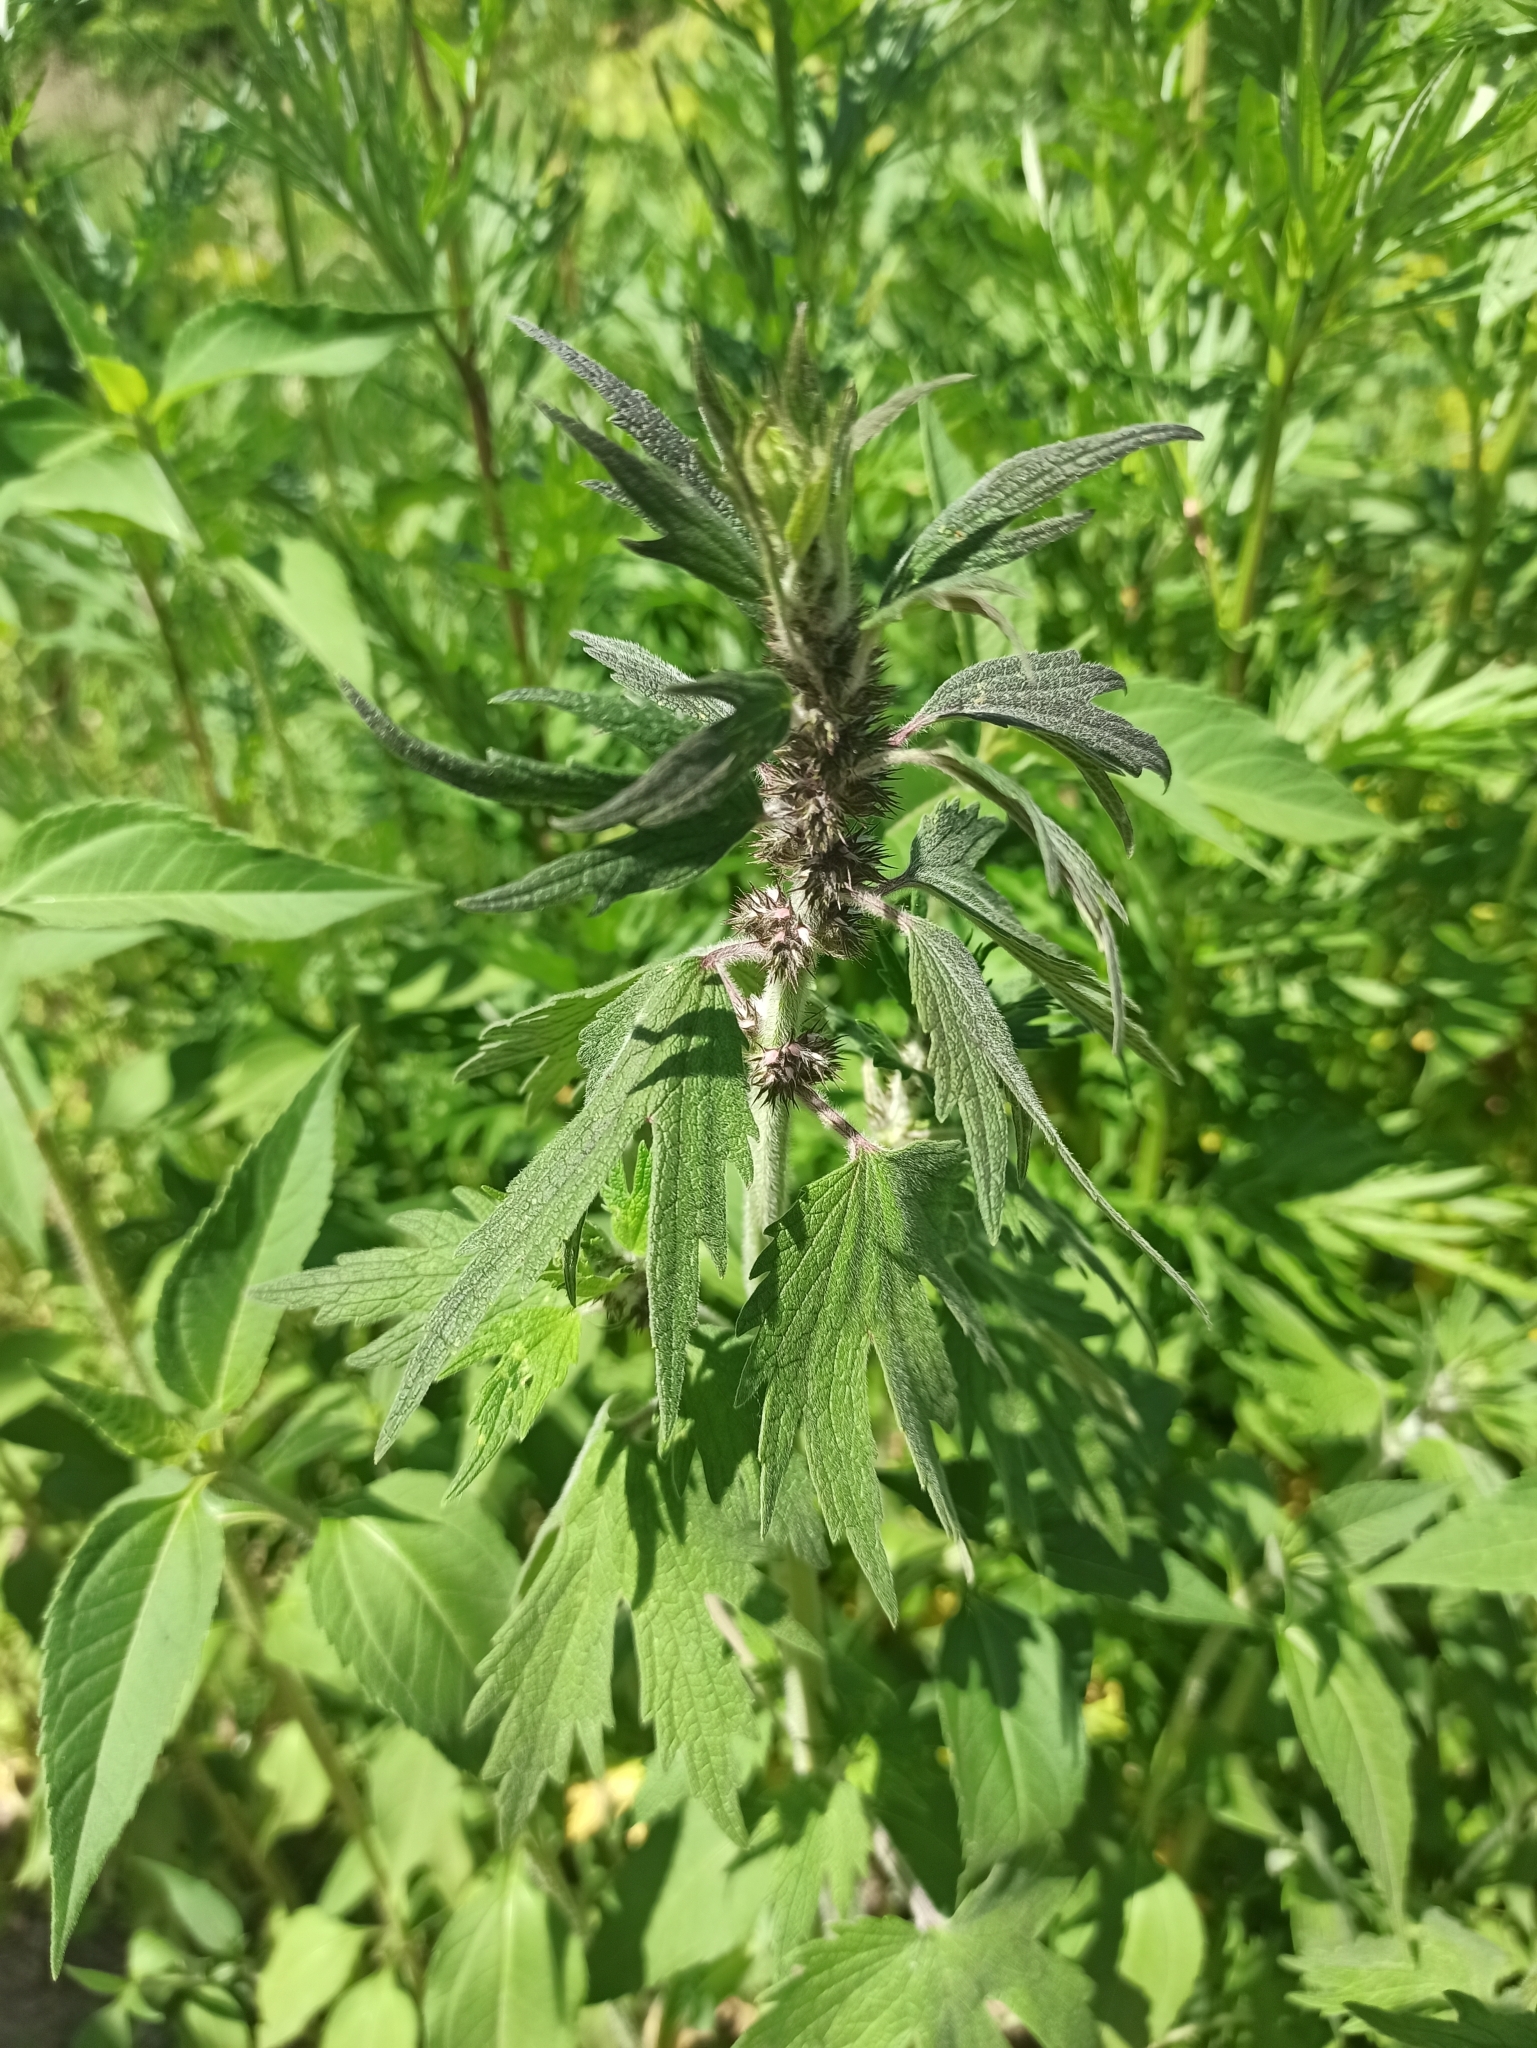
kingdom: Plantae
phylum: Tracheophyta
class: Magnoliopsida
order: Lamiales
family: Lamiaceae
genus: Leonurus
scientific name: Leonurus quinquelobatus
